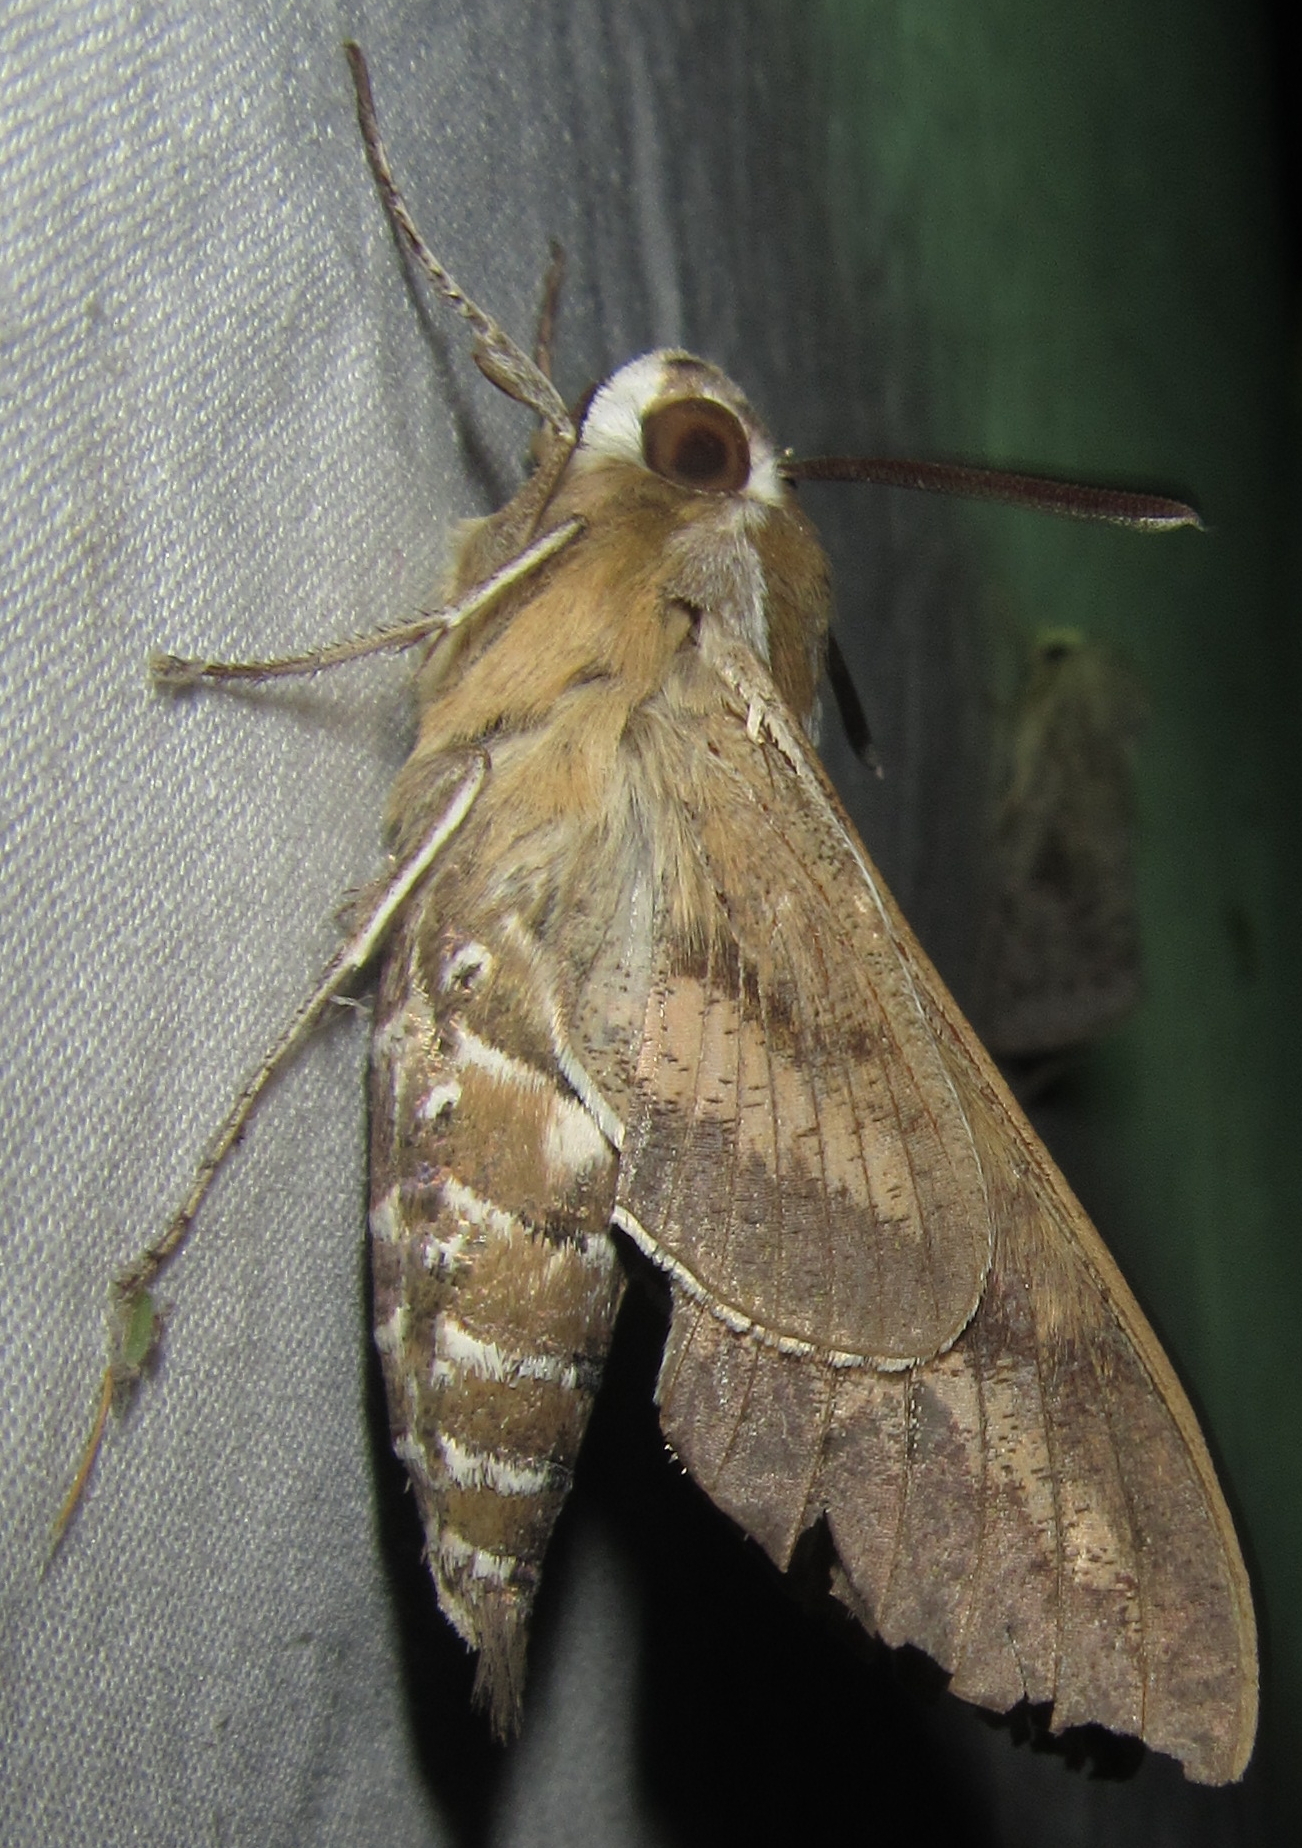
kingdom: Animalia
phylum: Arthropoda
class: Insecta
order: Lepidoptera
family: Sphingidae
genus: Hyles
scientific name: Hyles livornica
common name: Striped hawk-moth
